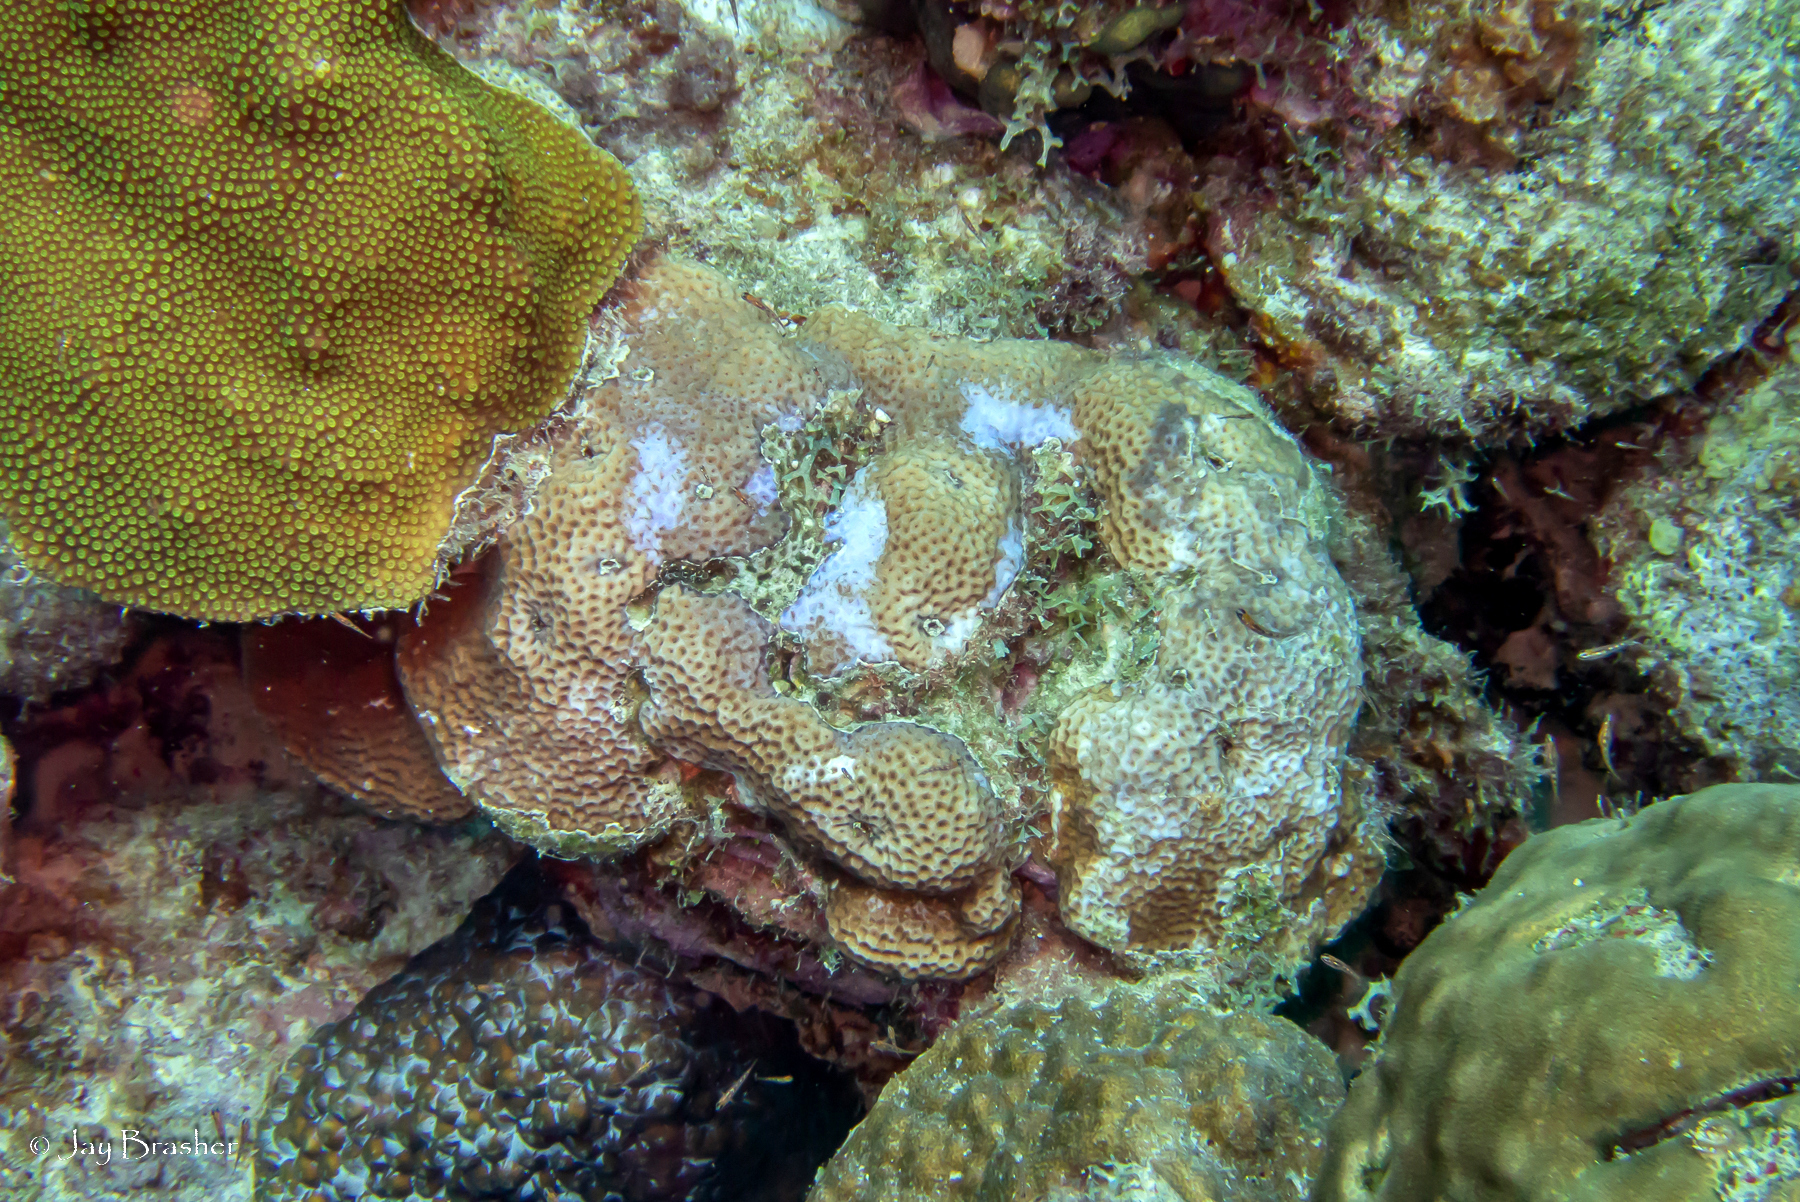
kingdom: Animalia
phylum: Cnidaria
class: Anthozoa
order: Scleractinia
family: Poritidae
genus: Porites
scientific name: Porites astreoides
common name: Mustard hill coral
